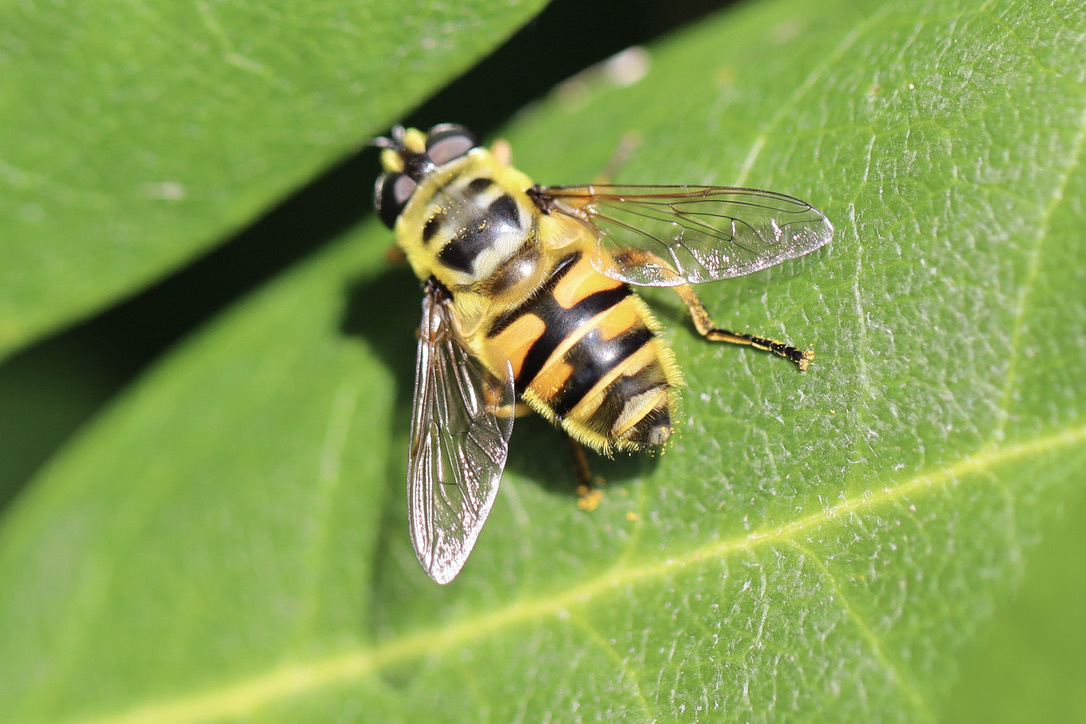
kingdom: Animalia
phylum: Arthropoda
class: Insecta
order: Diptera
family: Syrphidae
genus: Myathropa
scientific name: Myathropa florea
